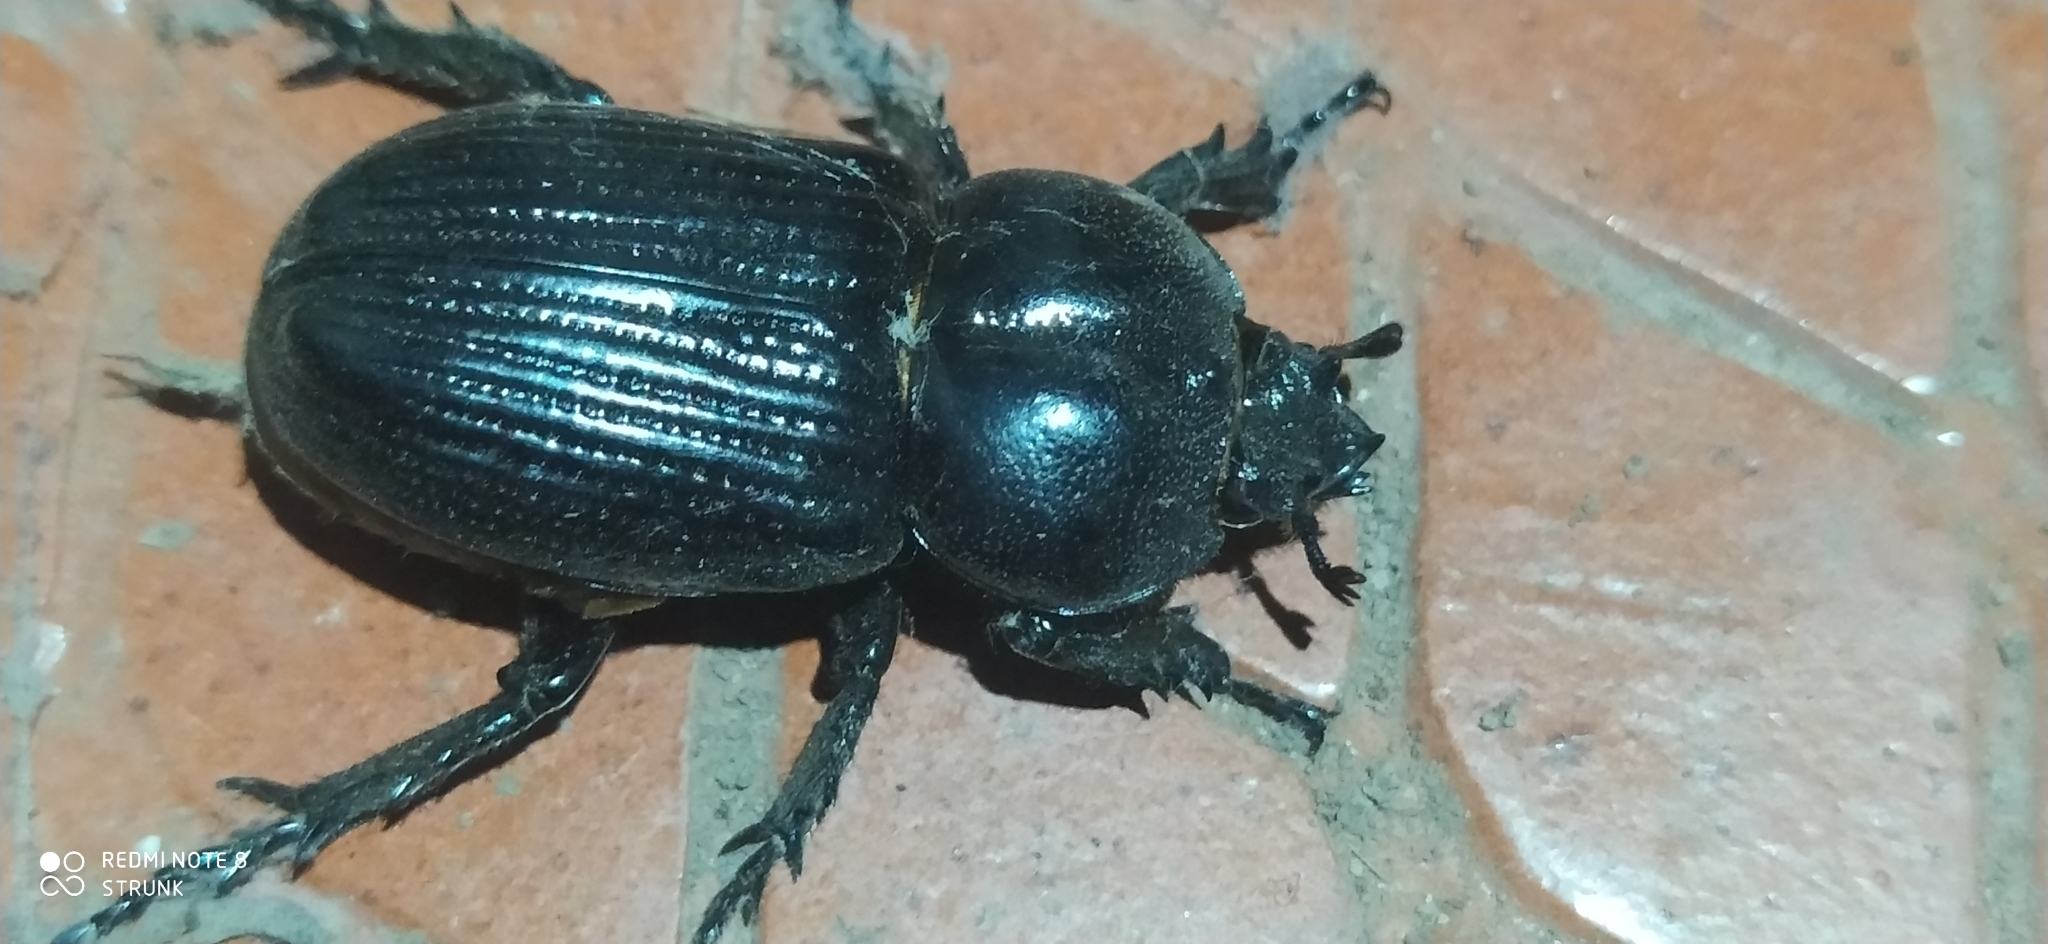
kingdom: Animalia
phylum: Arthropoda
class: Insecta
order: Coleoptera
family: Scarabaeidae
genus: Phileurus
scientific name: Phileurus didymus
